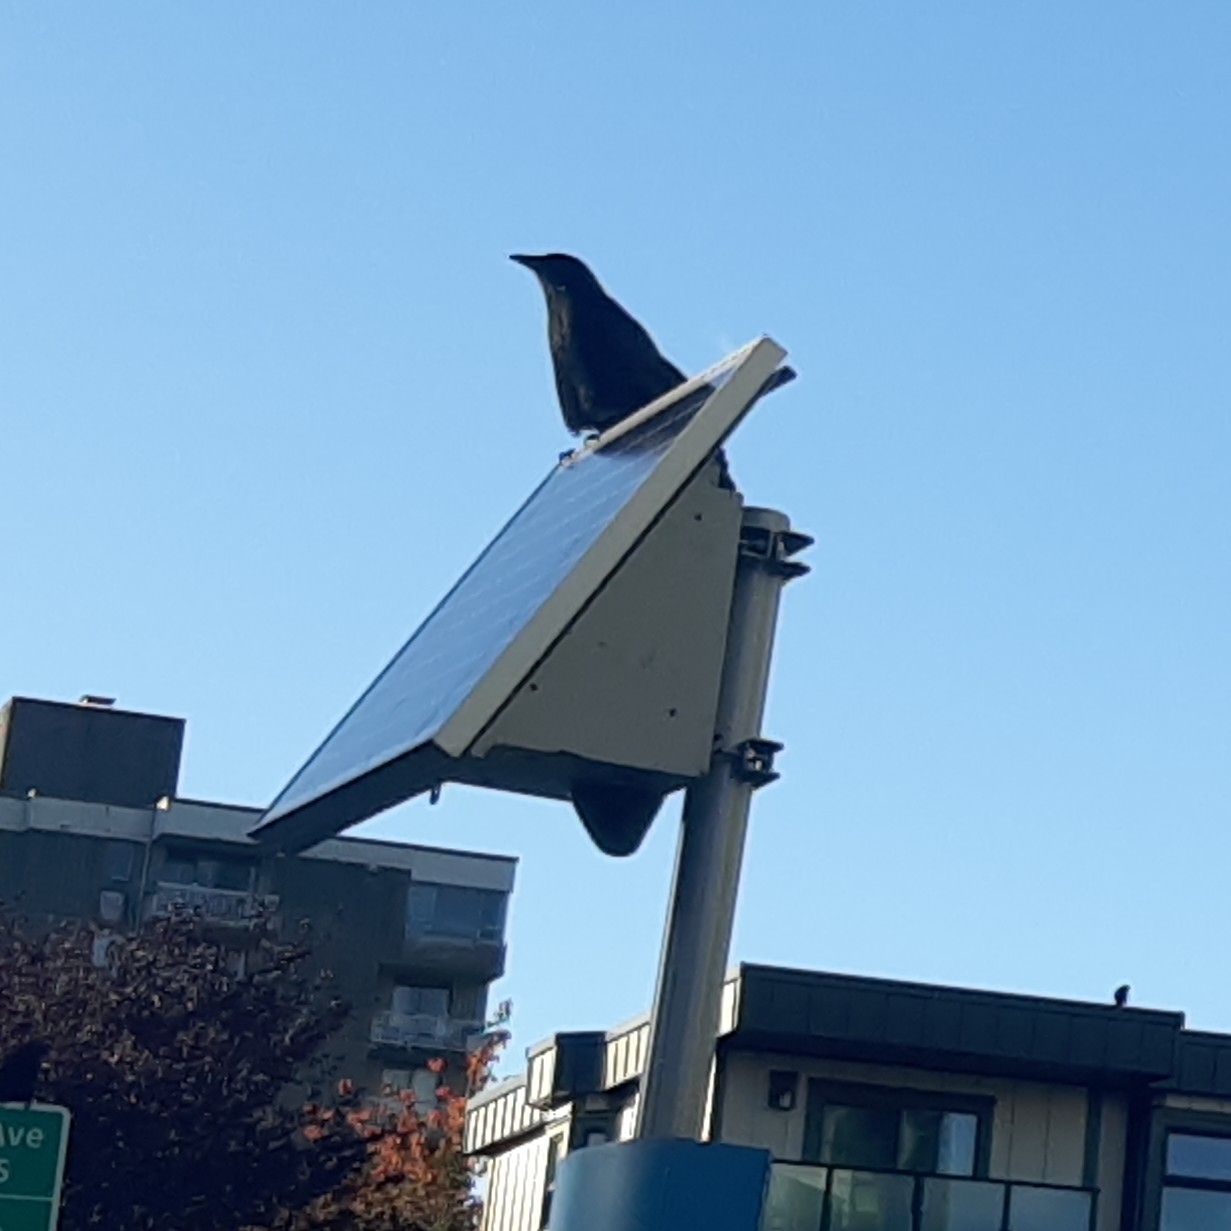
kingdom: Animalia
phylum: Chordata
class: Aves
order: Passeriformes
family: Corvidae
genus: Corvus
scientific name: Corvus brachyrhynchos
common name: American crow
